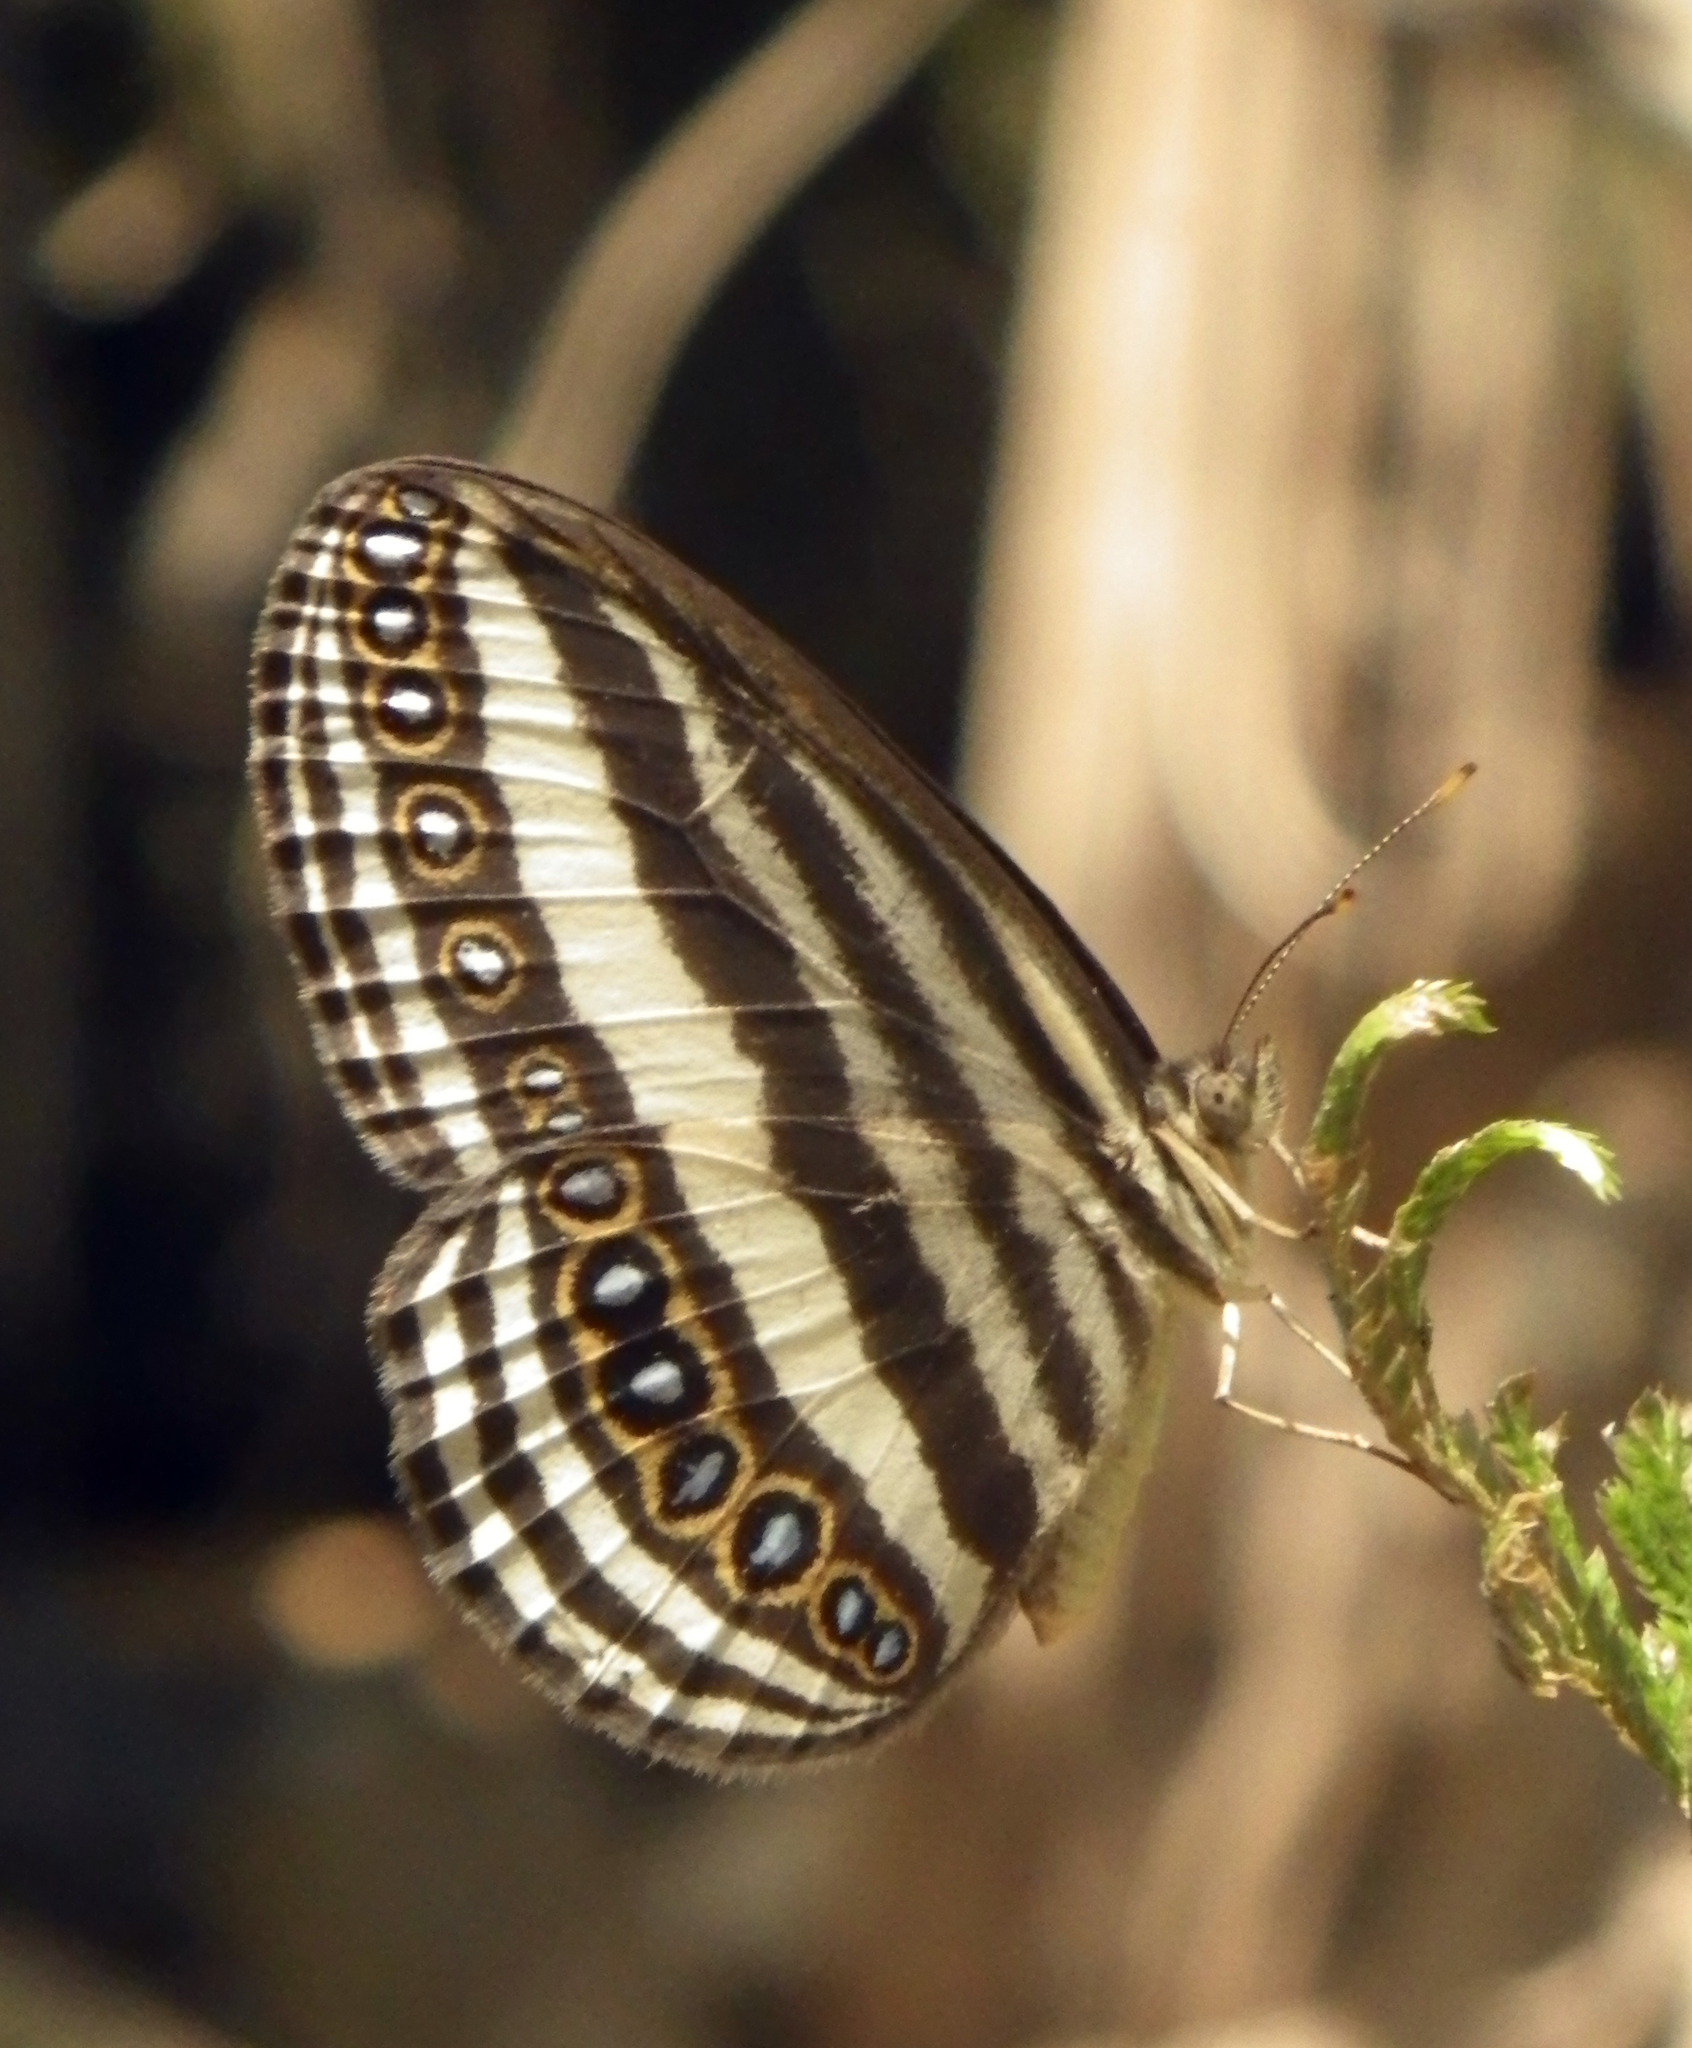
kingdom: Animalia
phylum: Arthropoda
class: Insecta
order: Lepidoptera
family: Nymphalidae
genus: Ragadia
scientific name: Ragadia crisilda
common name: White-striped ringlet
